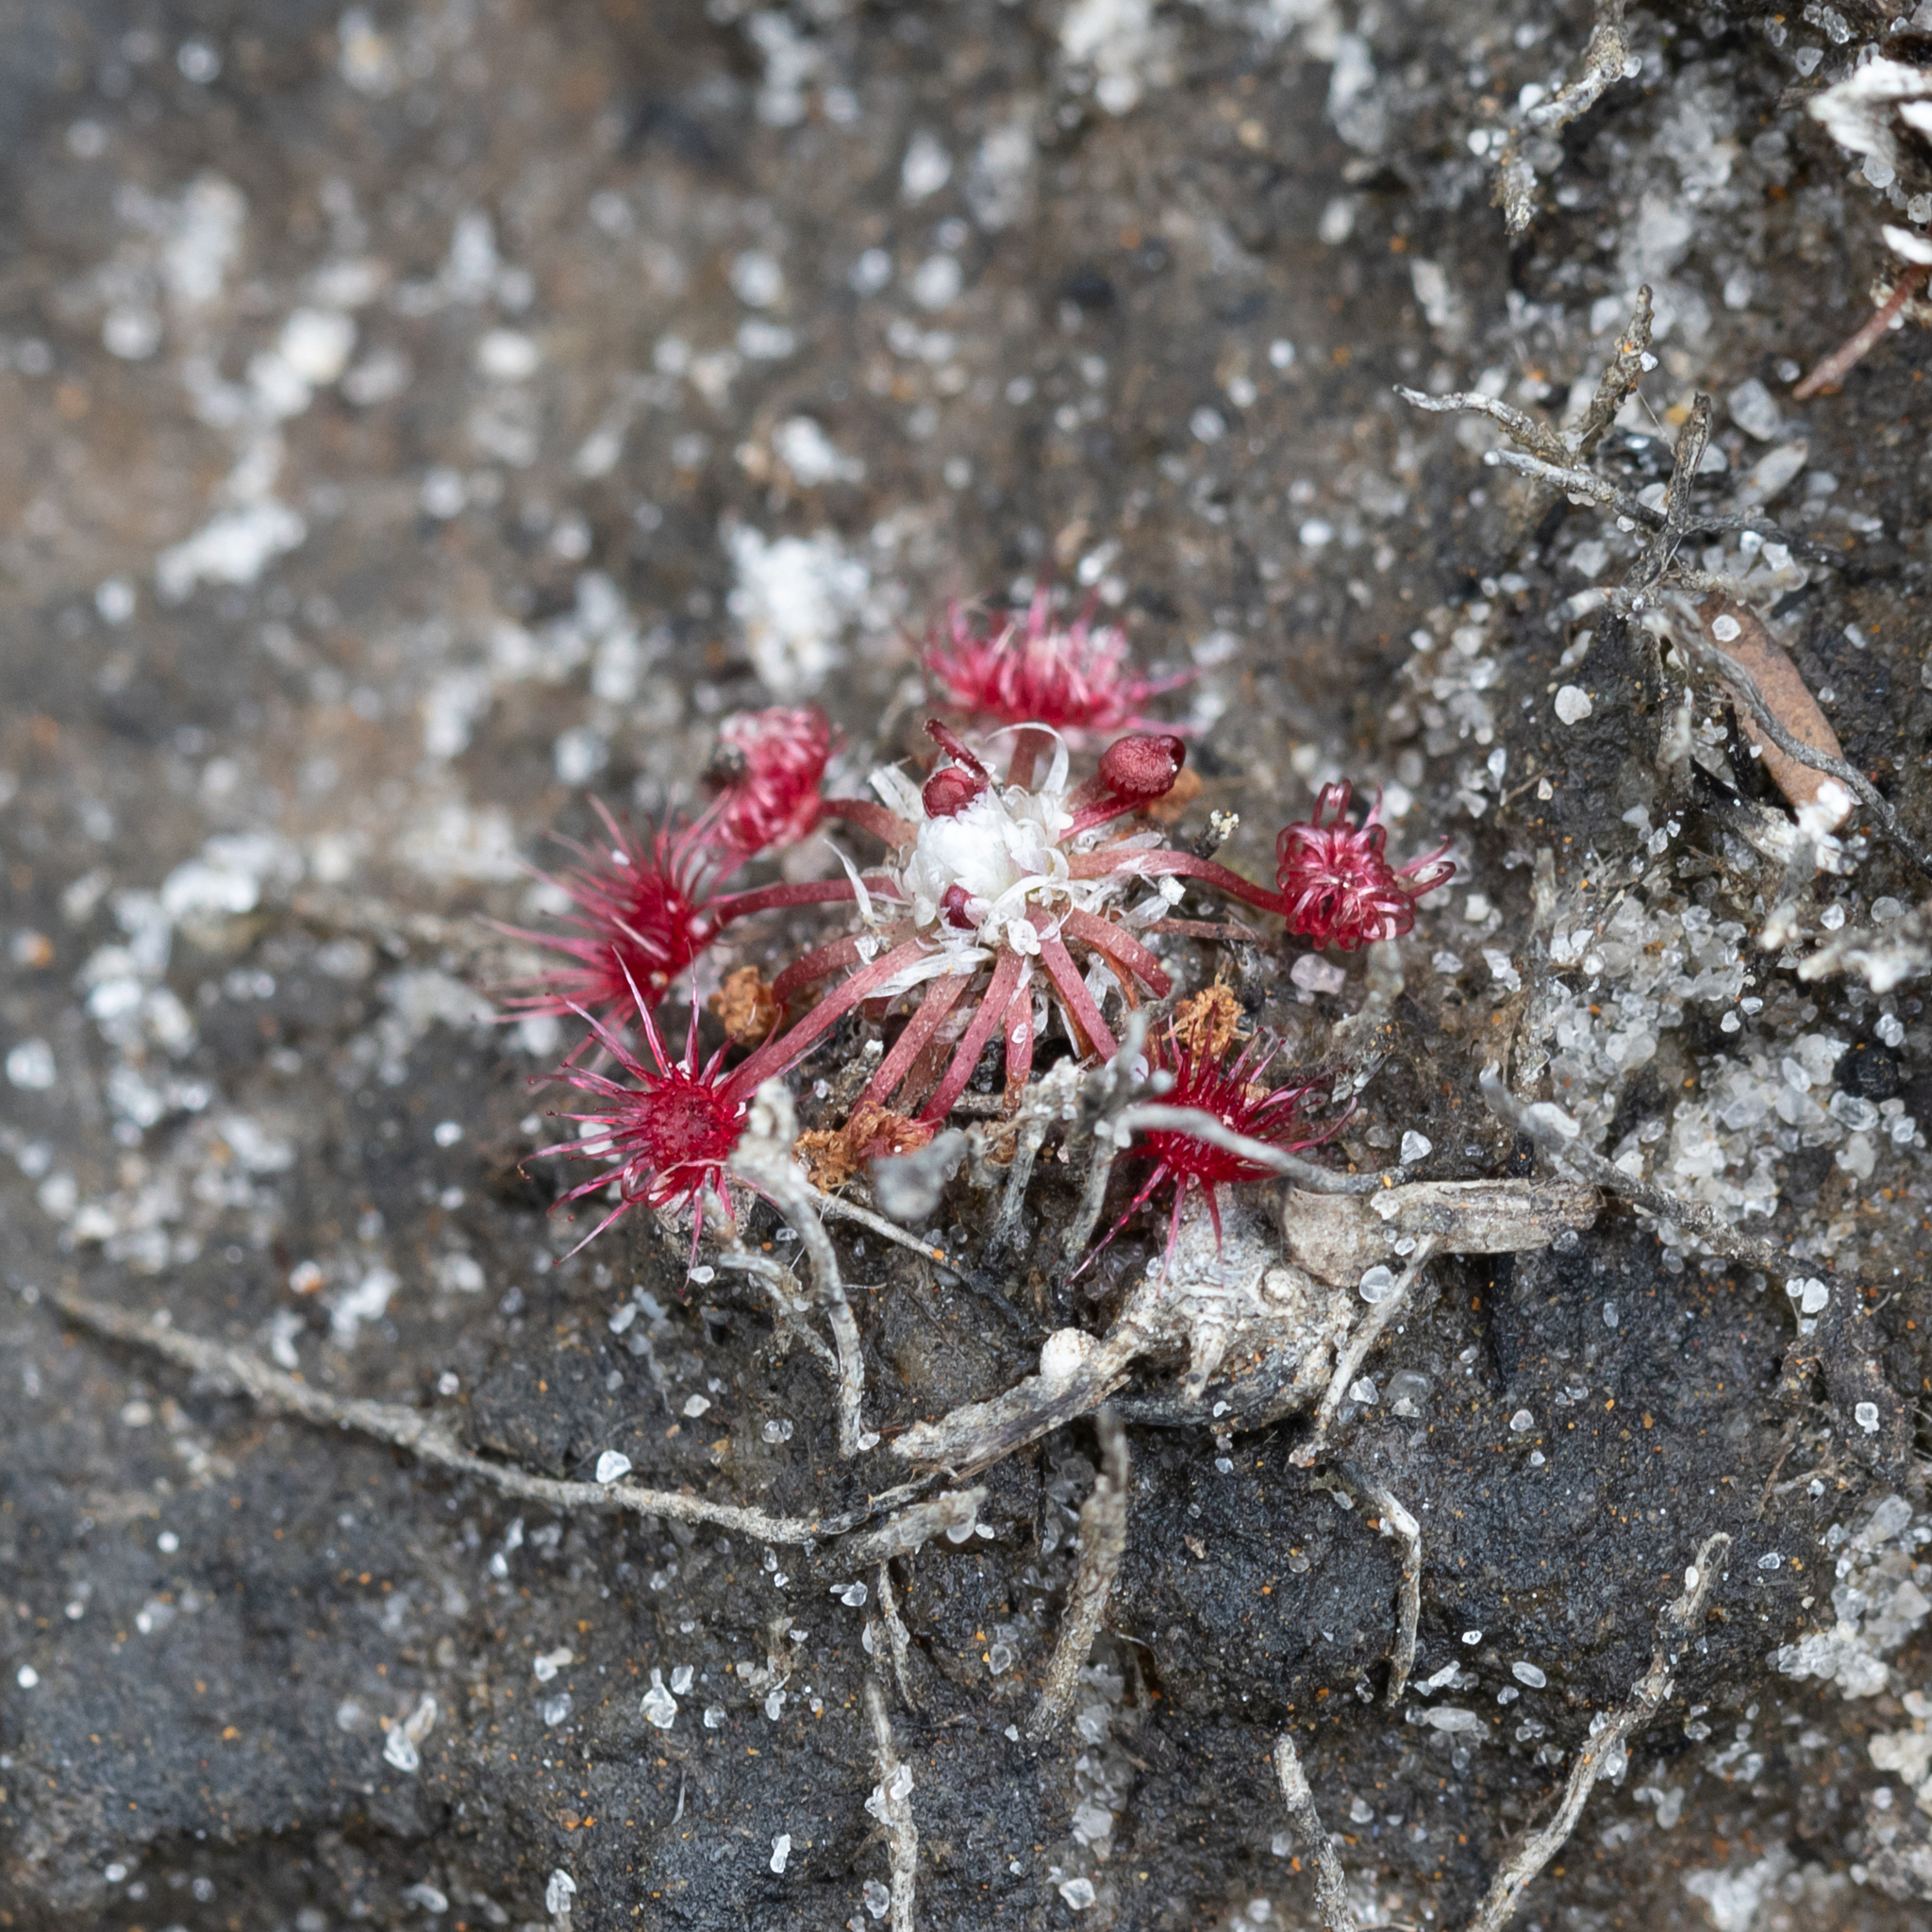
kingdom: Plantae
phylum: Tracheophyta
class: Magnoliopsida
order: Caryophyllales
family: Droseraceae
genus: Drosera
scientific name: Drosera occidentalis
